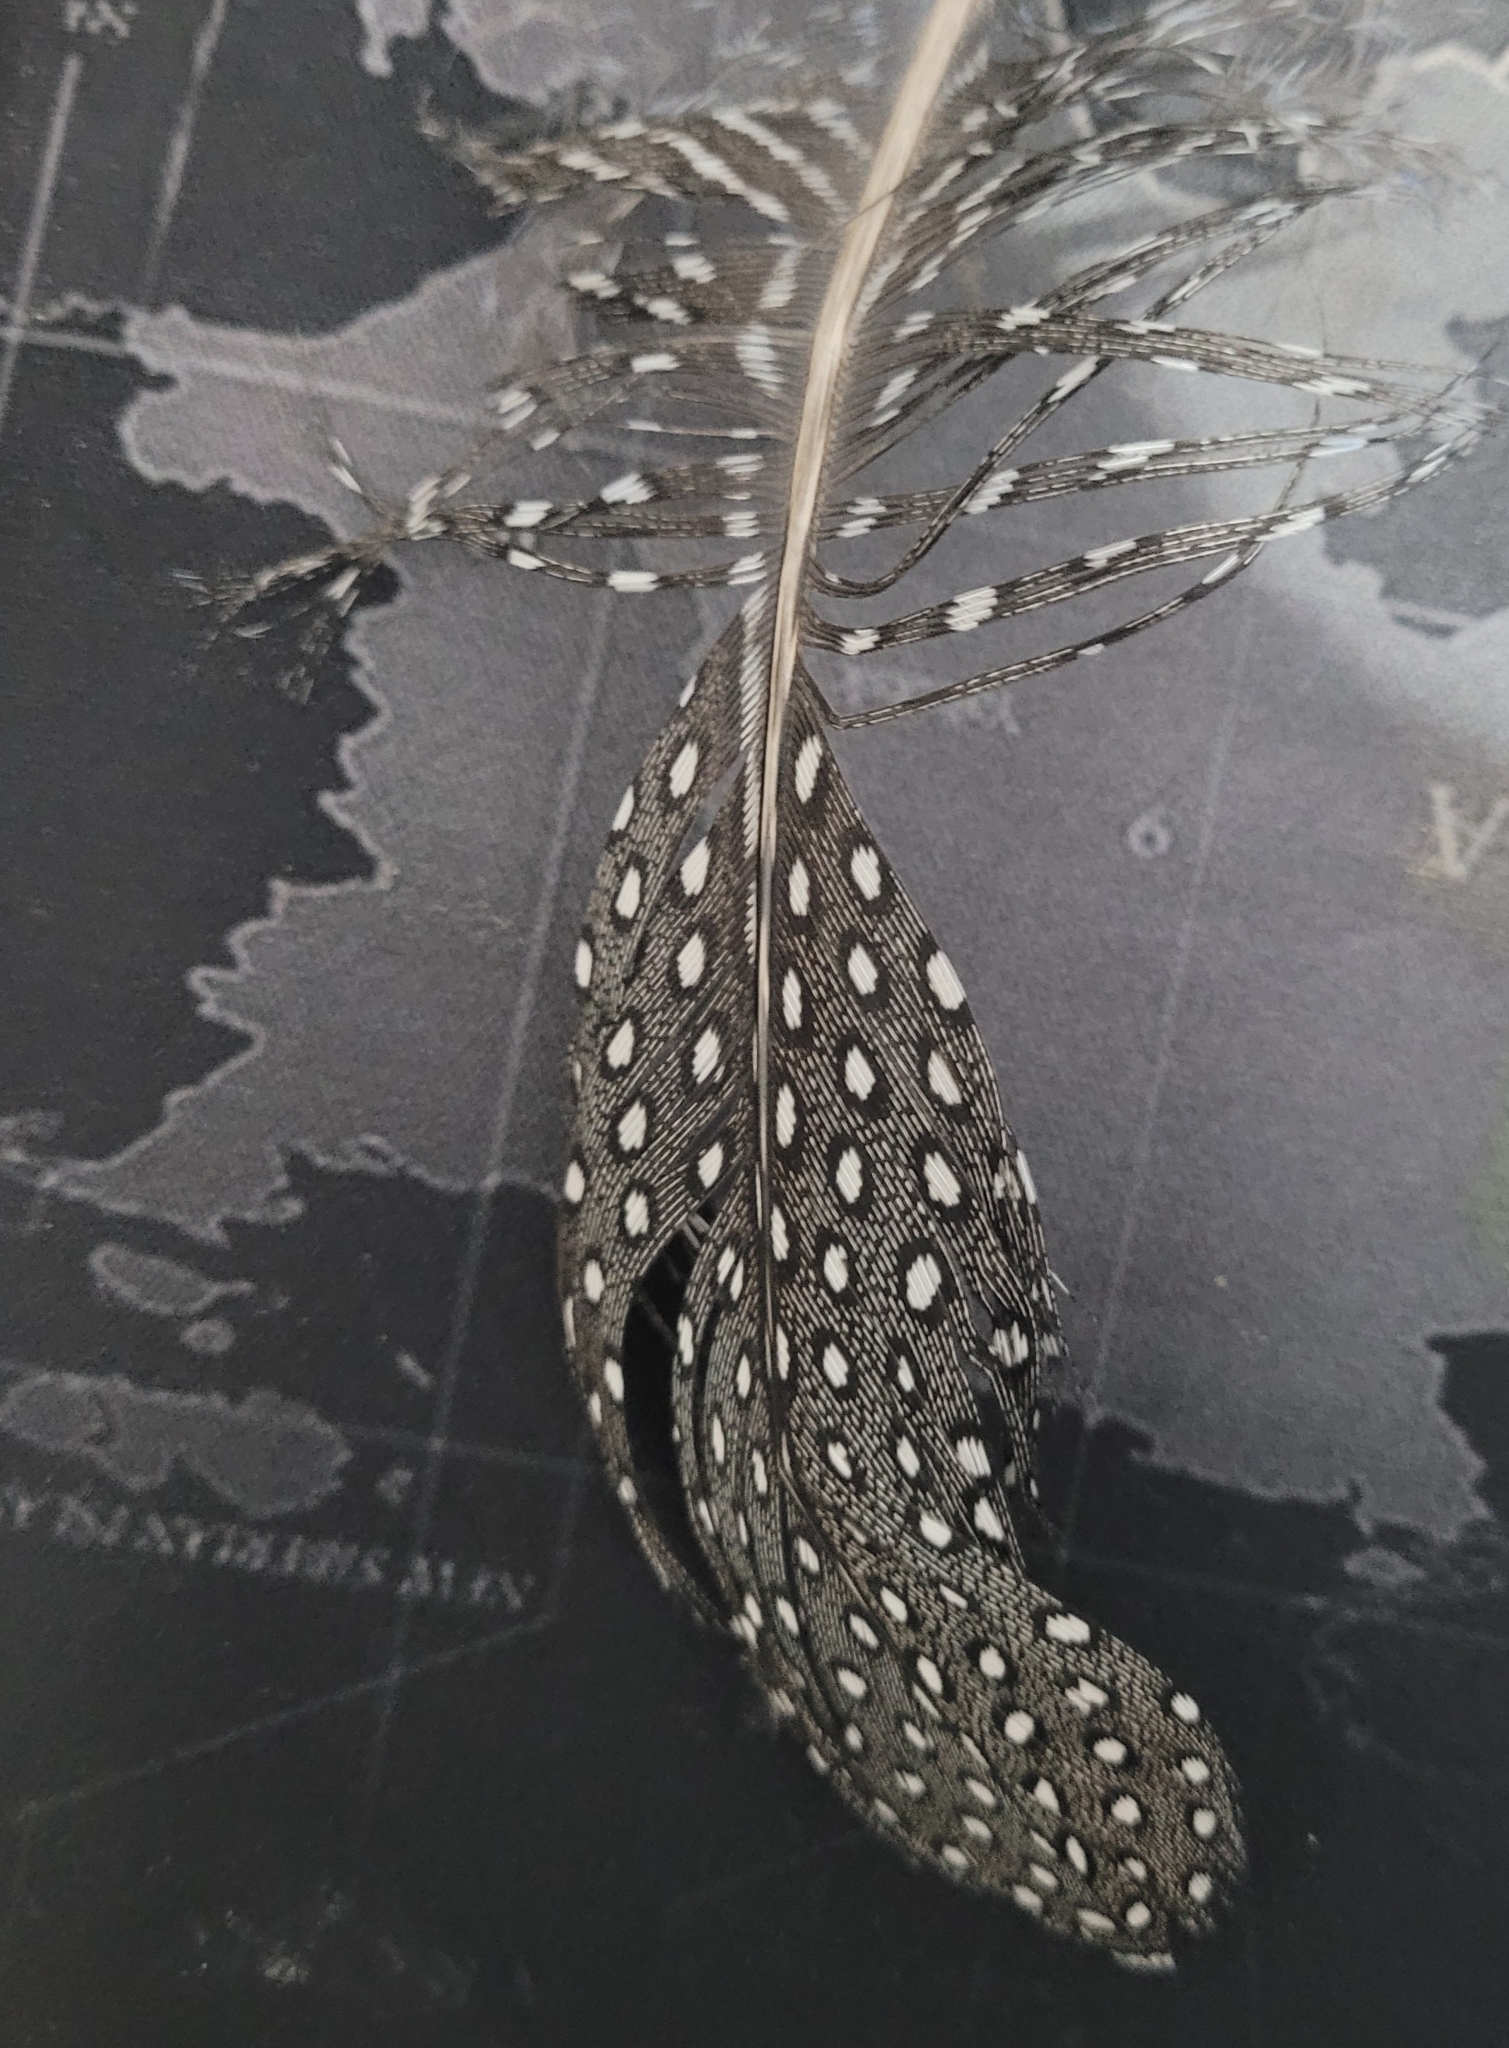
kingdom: Animalia
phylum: Chordata
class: Aves
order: Galliformes
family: Numididae
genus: Numida
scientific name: Numida meleagris
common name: Helmeted guineafowl
